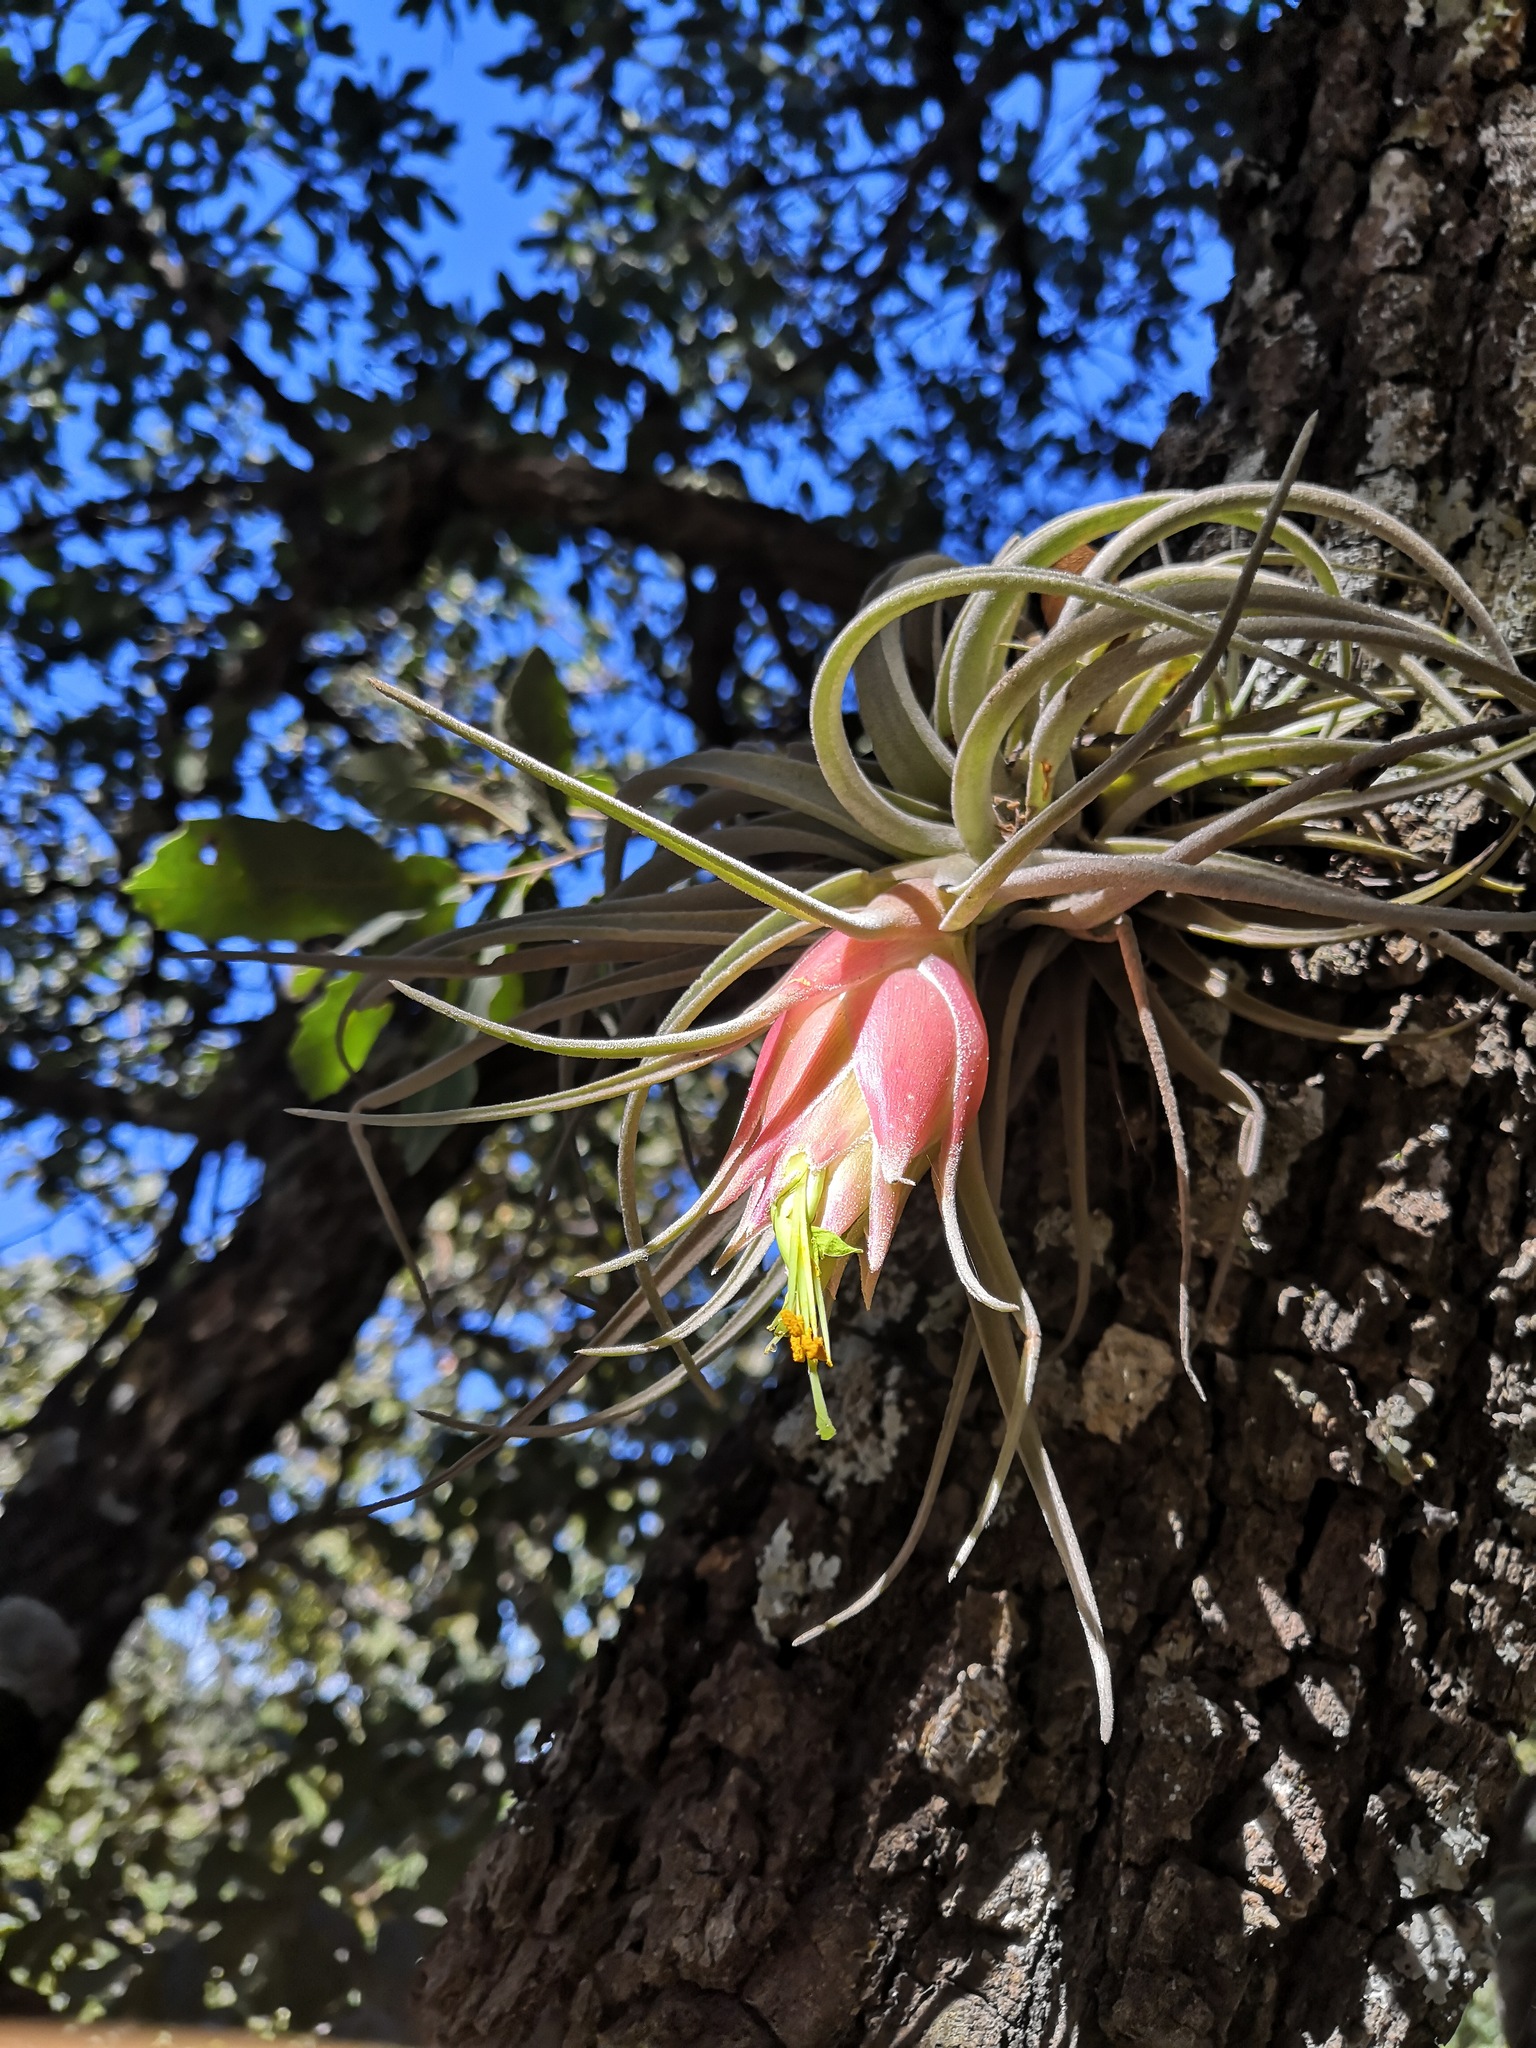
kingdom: Plantae
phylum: Tracheophyta
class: Liliopsida
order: Poales
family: Bromeliaceae
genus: Tillandsia
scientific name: Tillandsia erubescens
